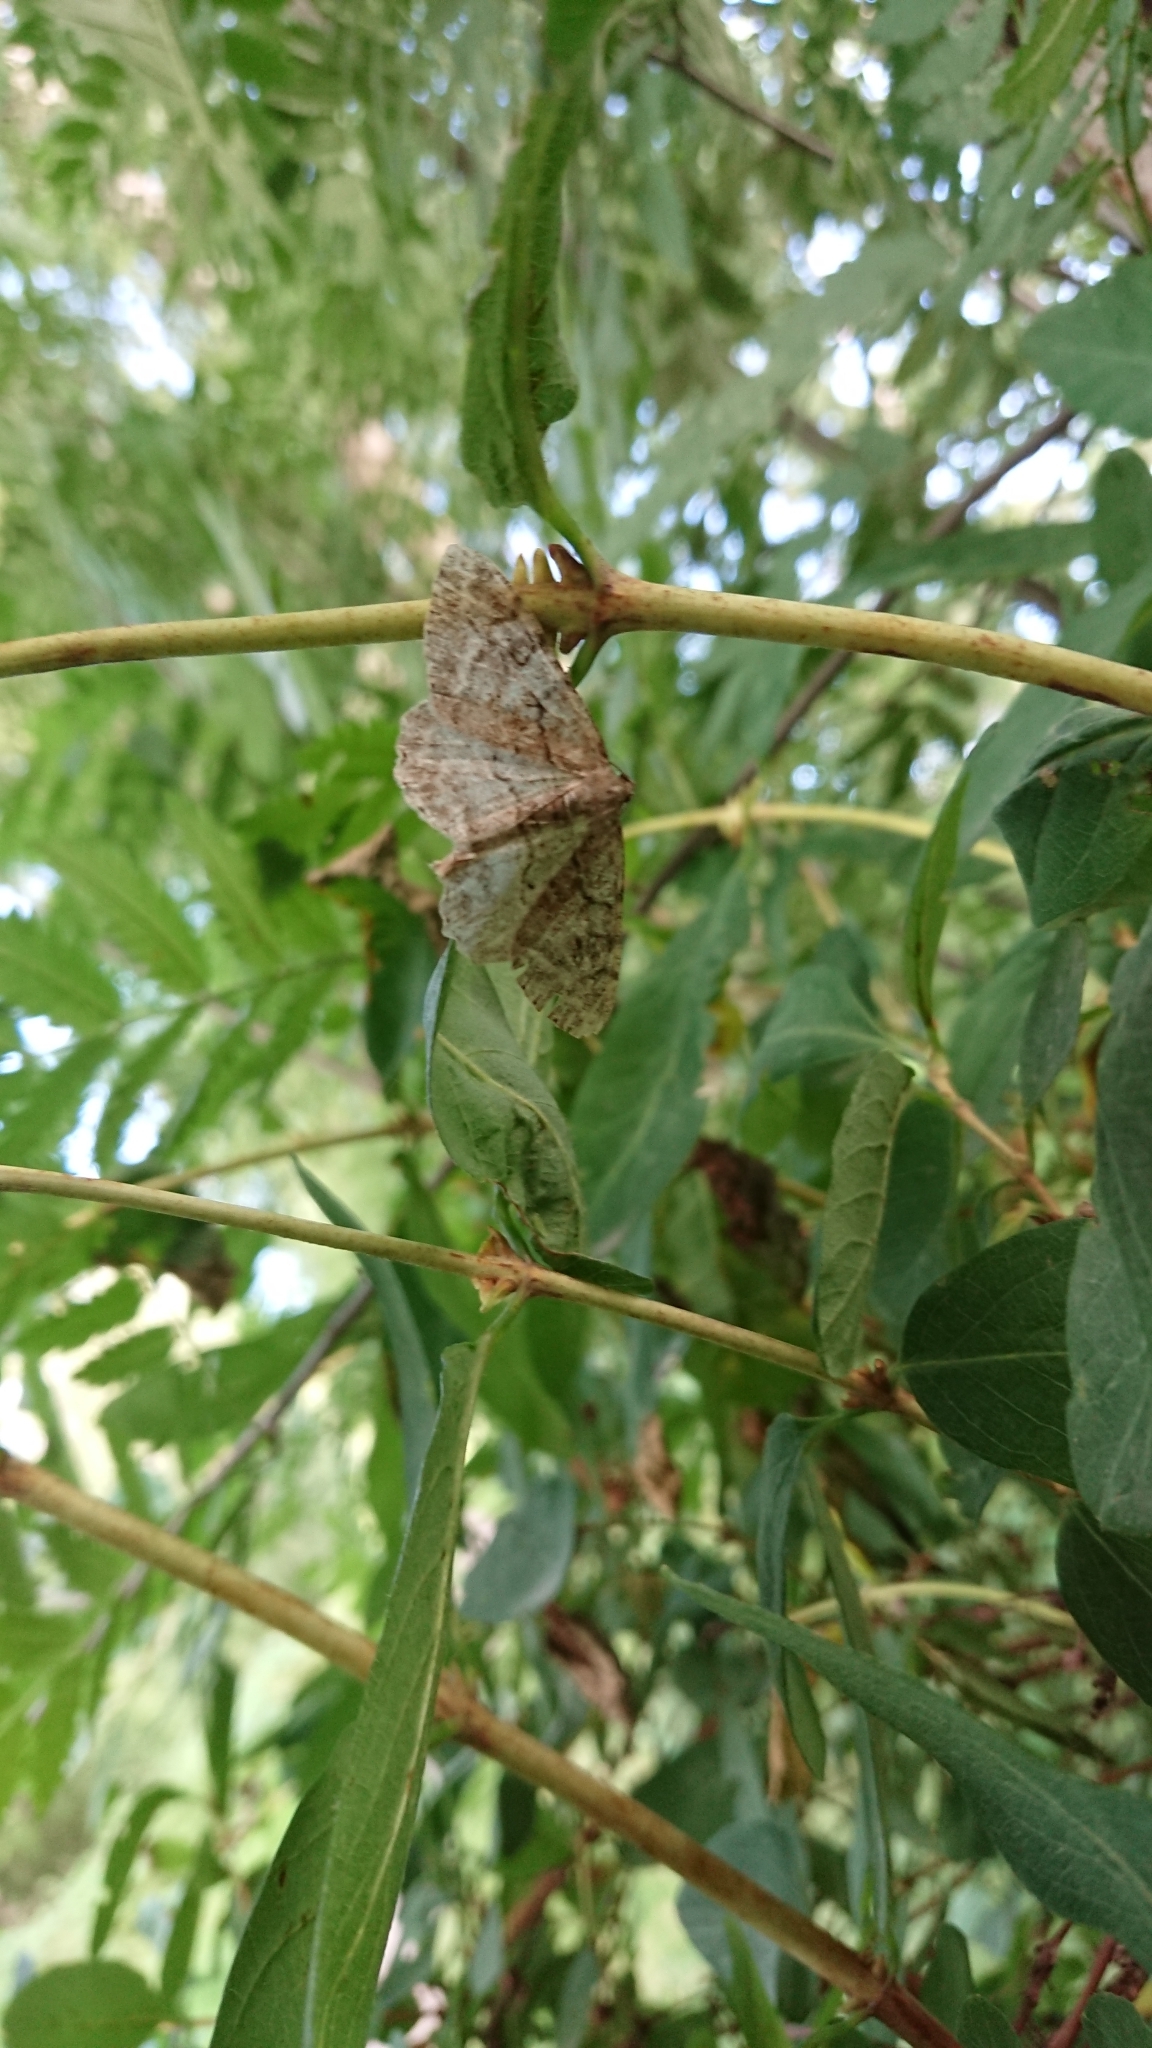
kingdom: Animalia
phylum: Arthropoda
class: Insecta
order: Lepidoptera
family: Geometridae
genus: Alcis
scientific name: Alcis repandata
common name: Mottled beauty
